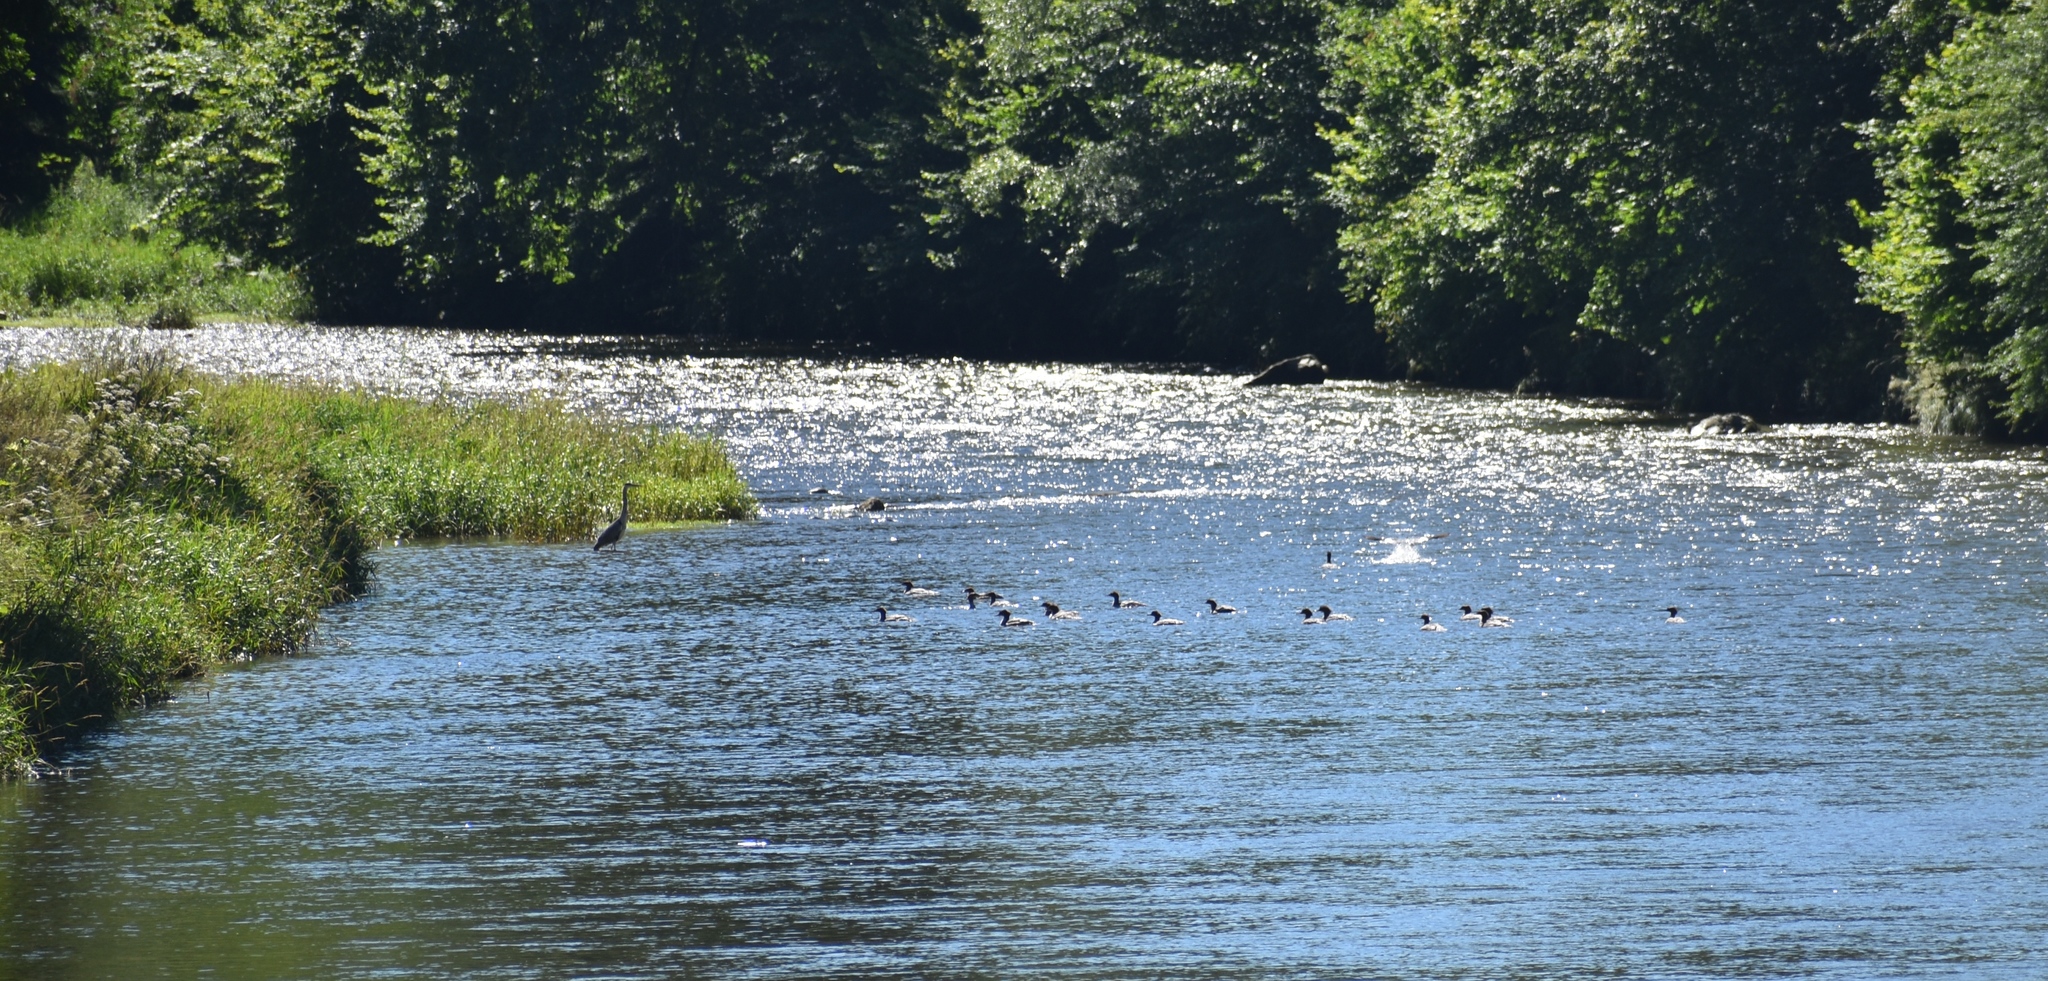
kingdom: Animalia
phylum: Chordata
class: Aves
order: Anseriformes
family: Anatidae
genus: Mergus
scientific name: Mergus merganser
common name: Common merganser
